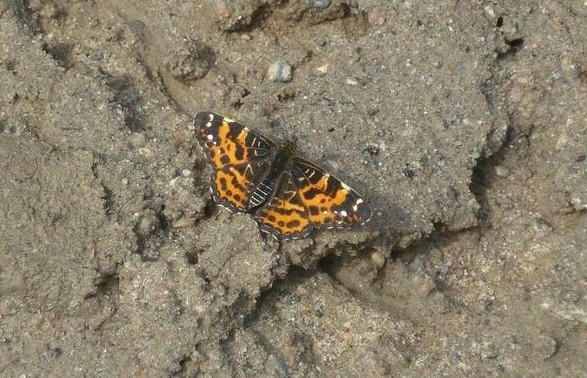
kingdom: Animalia
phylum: Arthropoda
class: Insecta
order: Lepidoptera
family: Nymphalidae
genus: Araschnia
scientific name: Araschnia levana
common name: Map butterfly
